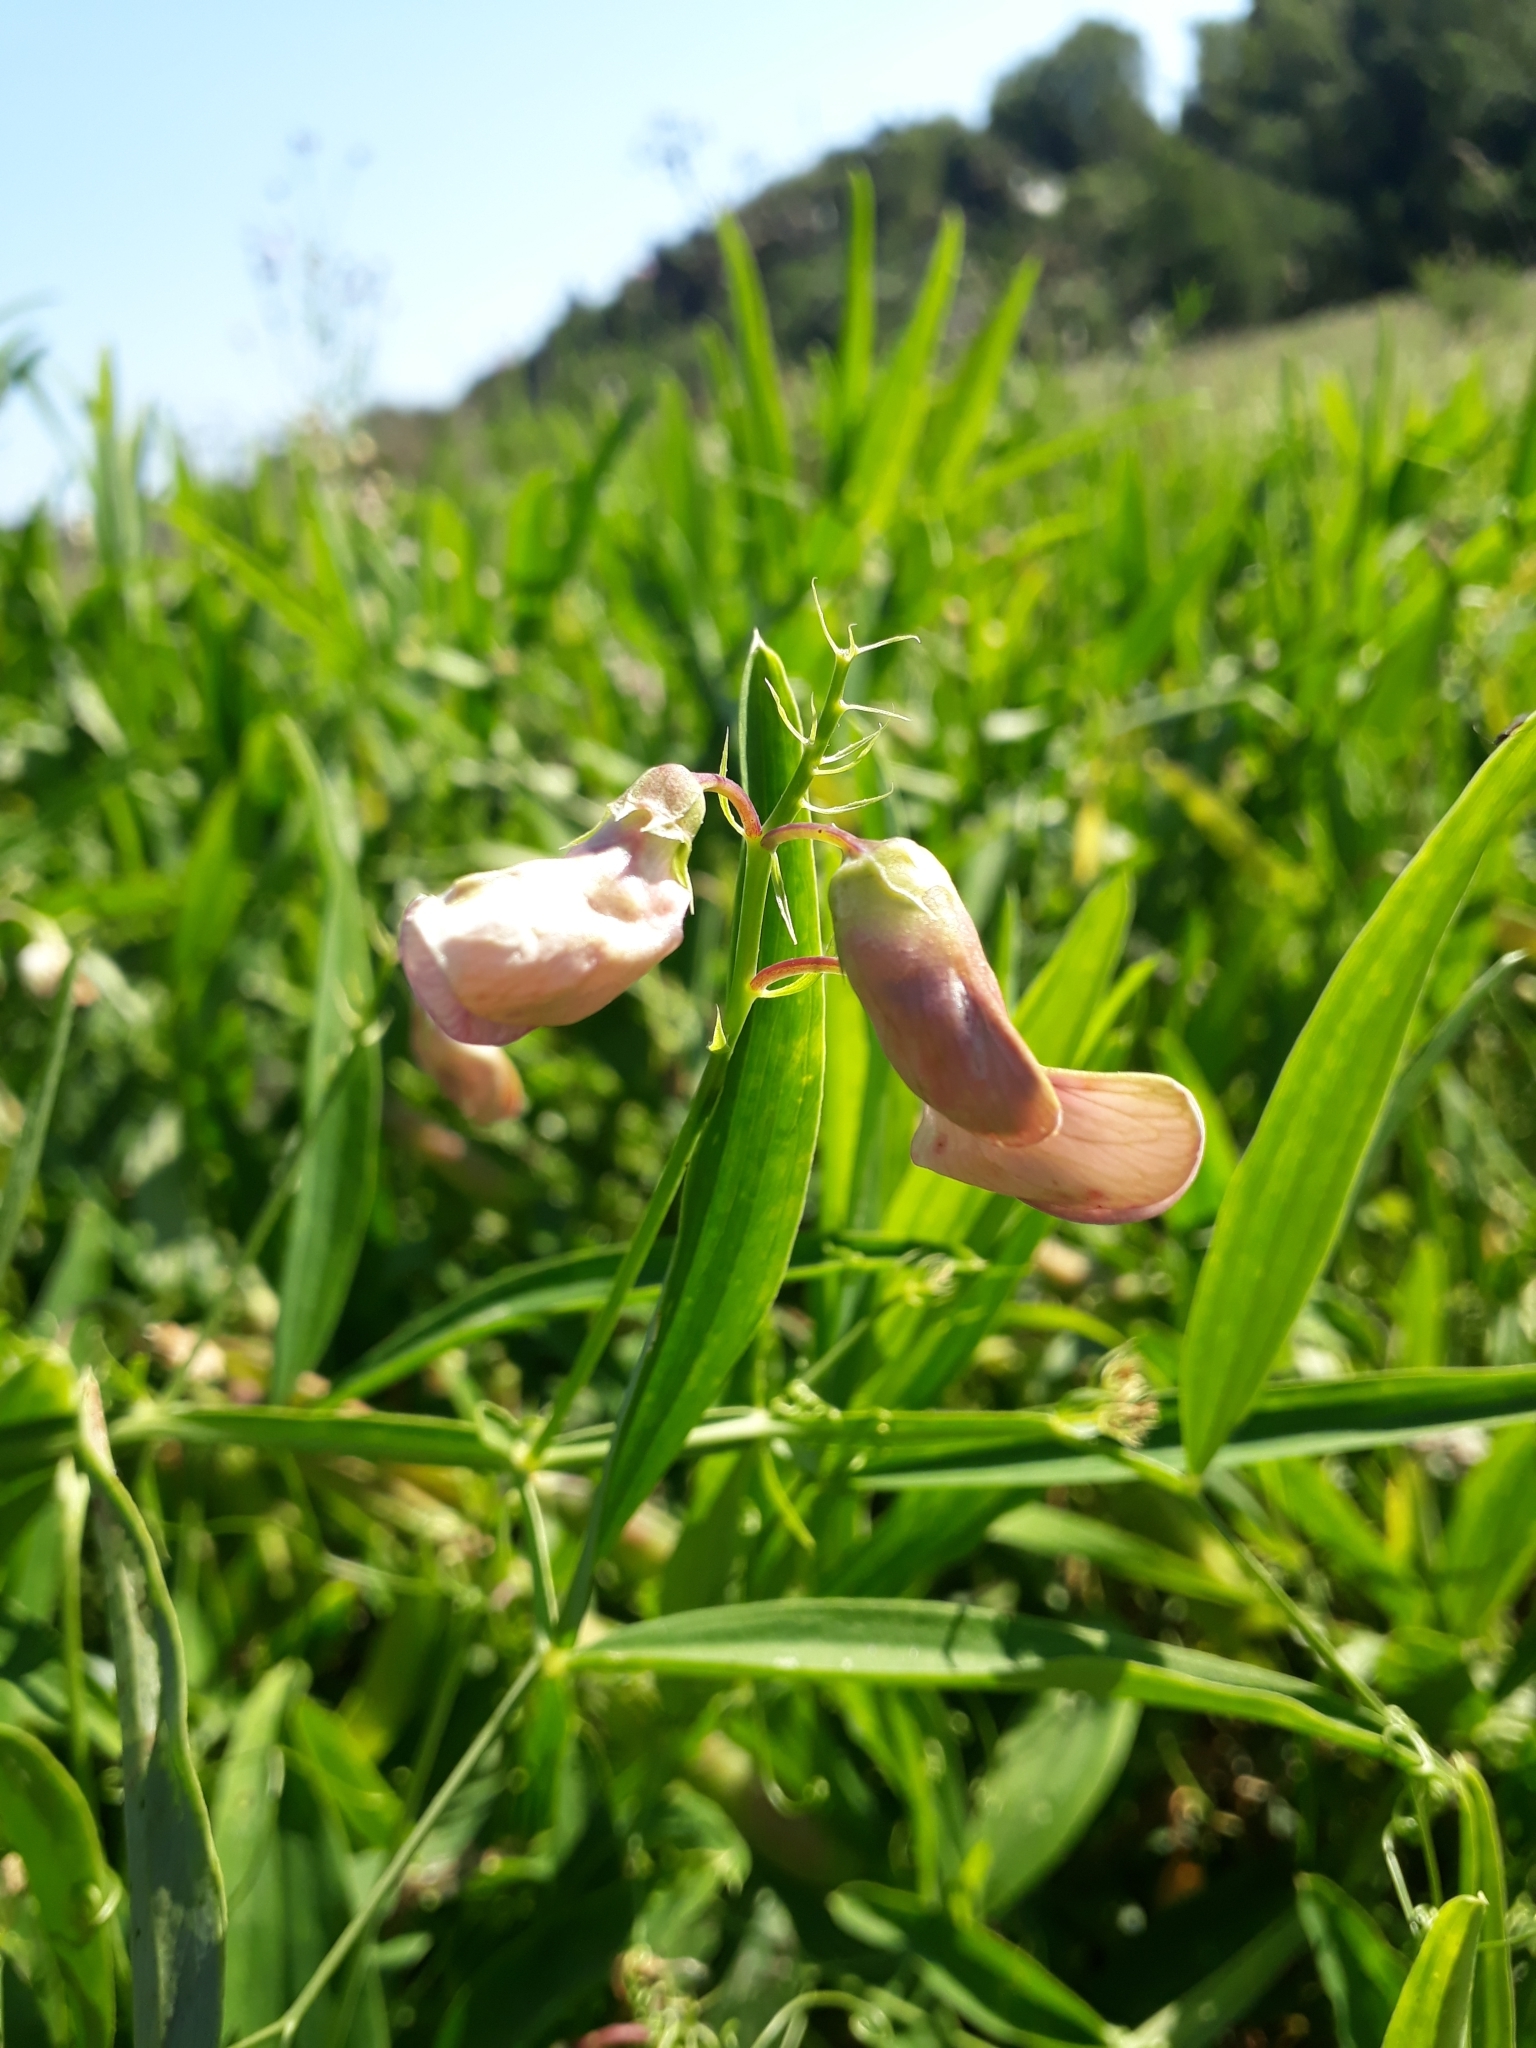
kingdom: Plantae
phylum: Tracheophyta
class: Magnoliopsida
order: Fabales
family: Fabaceae
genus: Lathyrus
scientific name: Lathyrus sylvestris
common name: Flat pea
